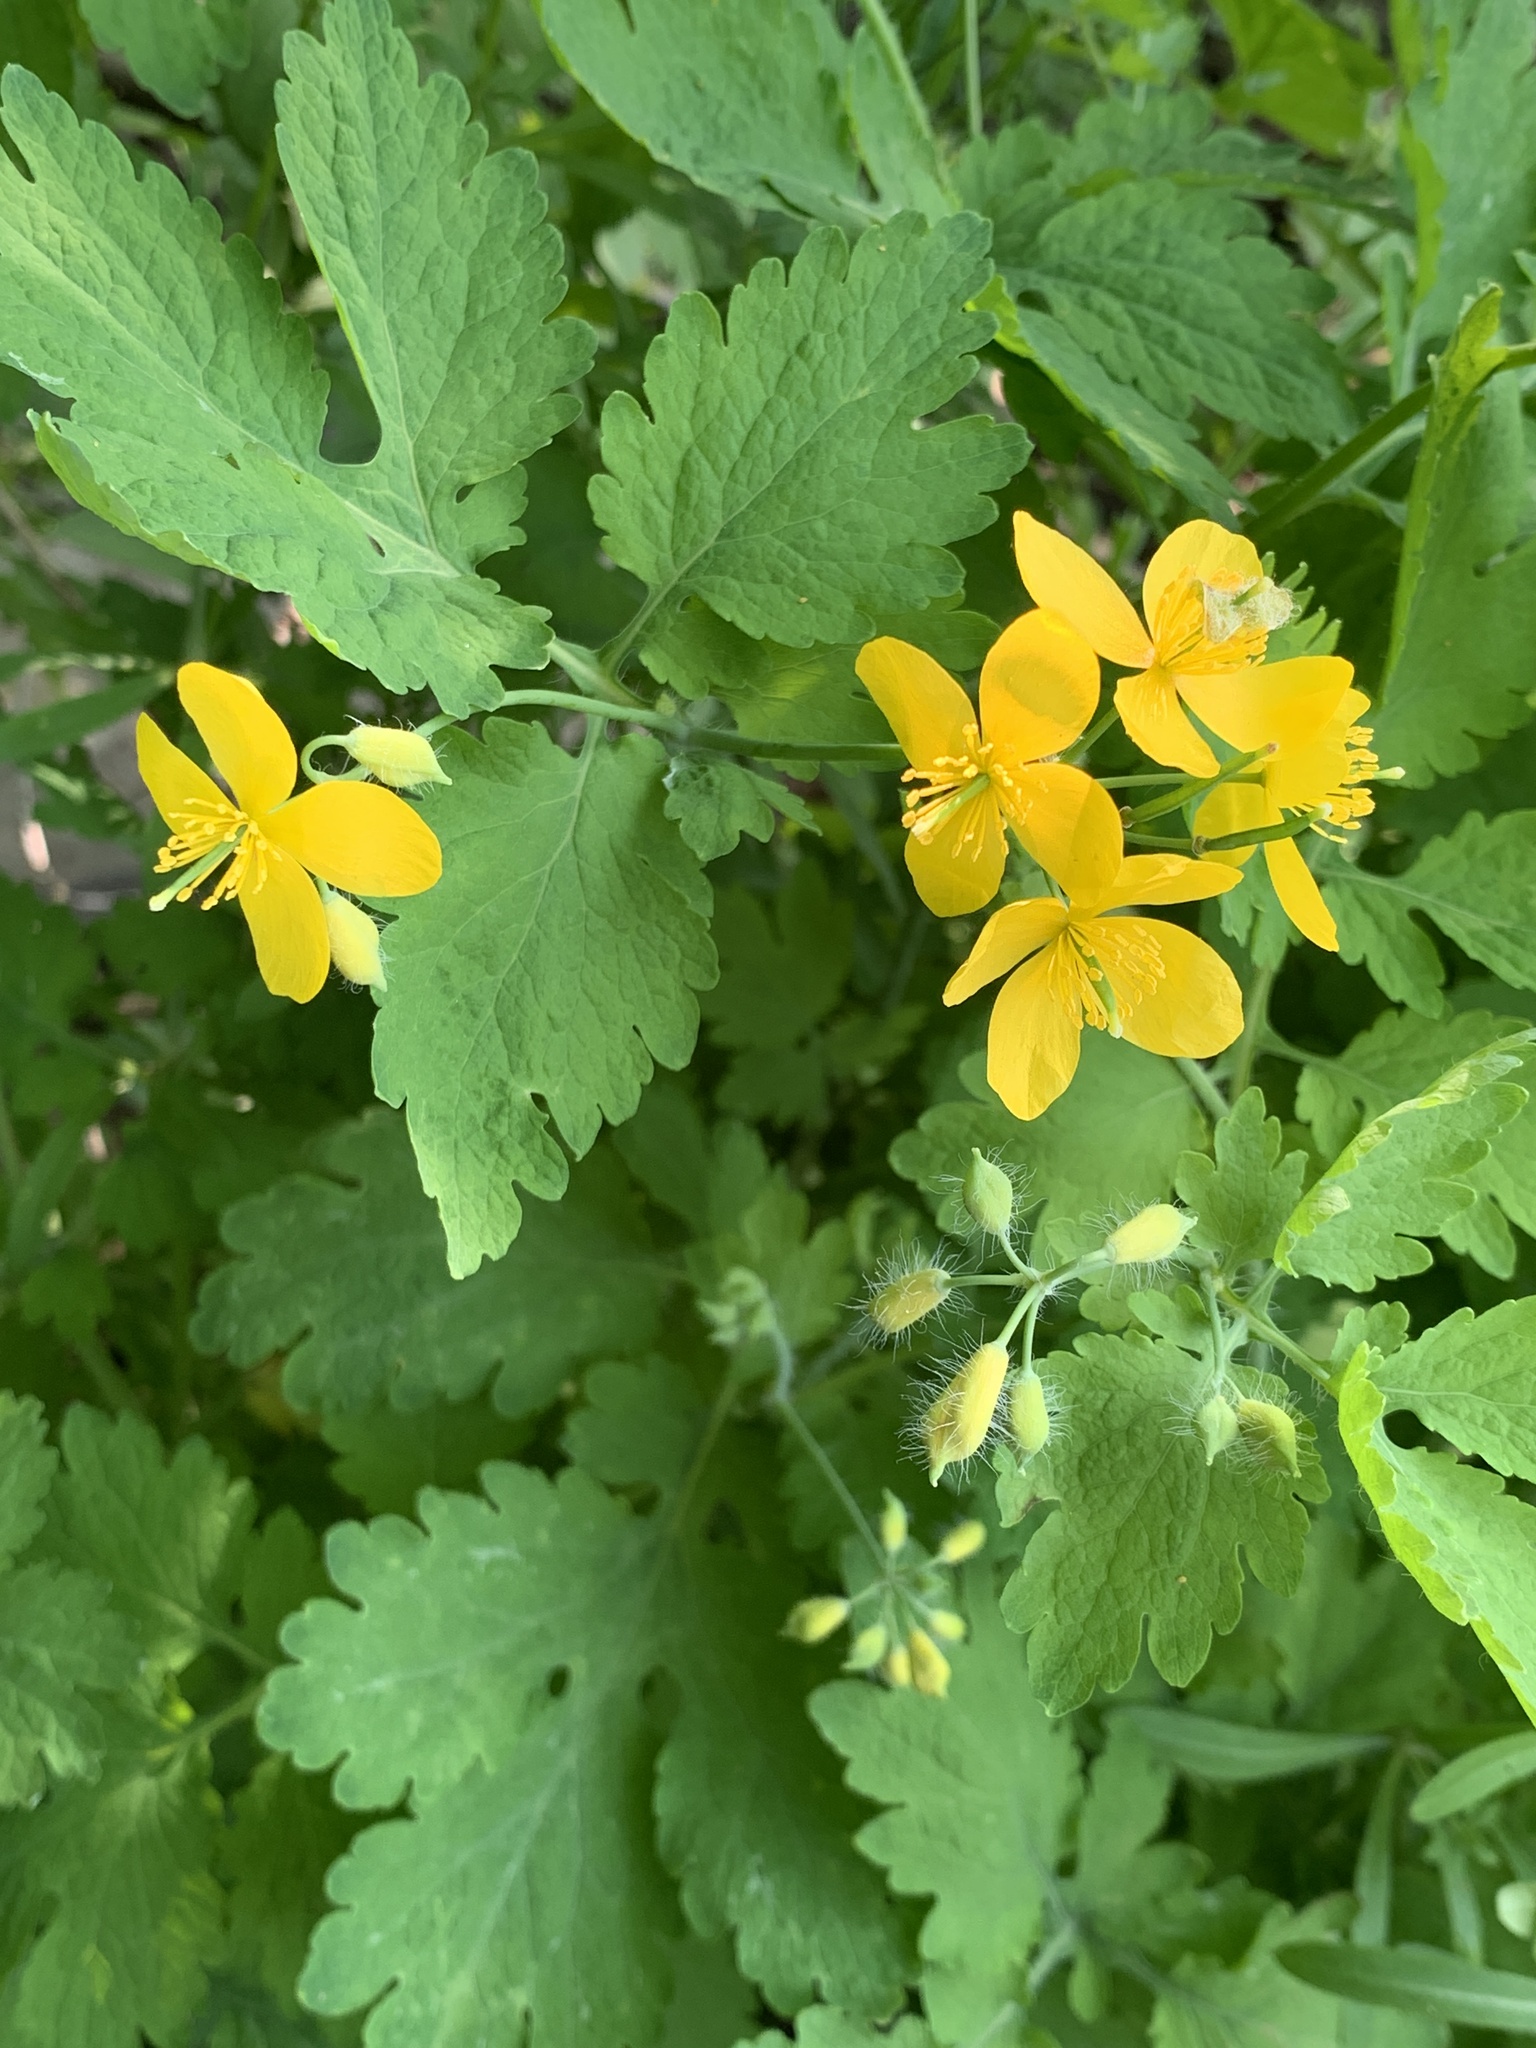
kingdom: Plantae
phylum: Tracheophyta
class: Magnoliopsida
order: Ranunculales
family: Papaveraceae
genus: Chelidonium
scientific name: Chelidonium majus
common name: Greater celandine
